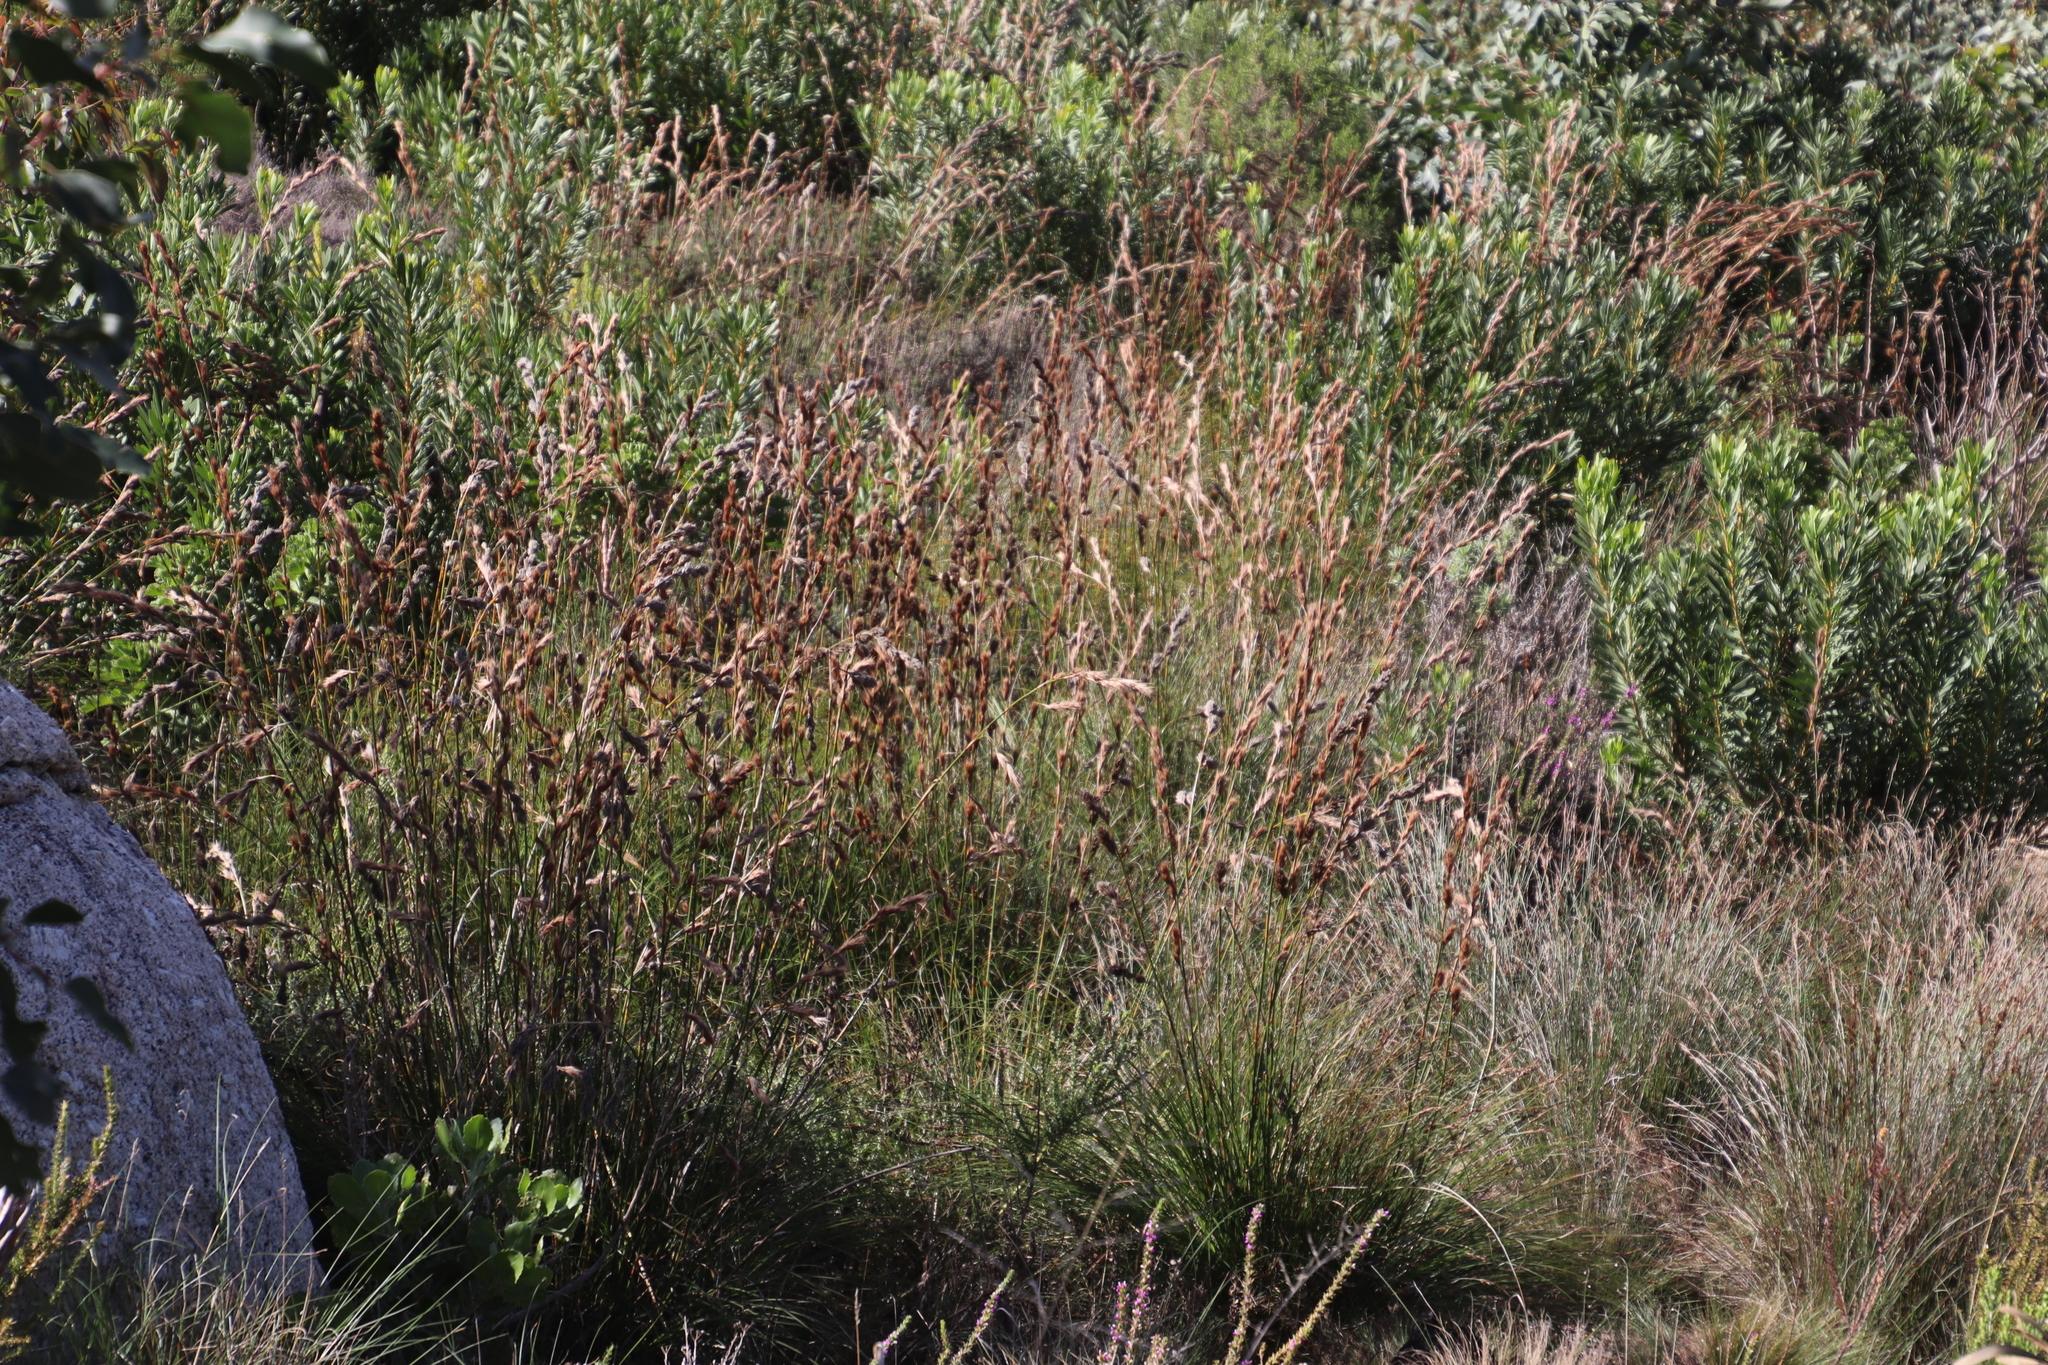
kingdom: Plantae
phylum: Tracheophyta
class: Liliopsida
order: Poales
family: Cyperaceae
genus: Tetraria
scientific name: Tetraria bromoides
